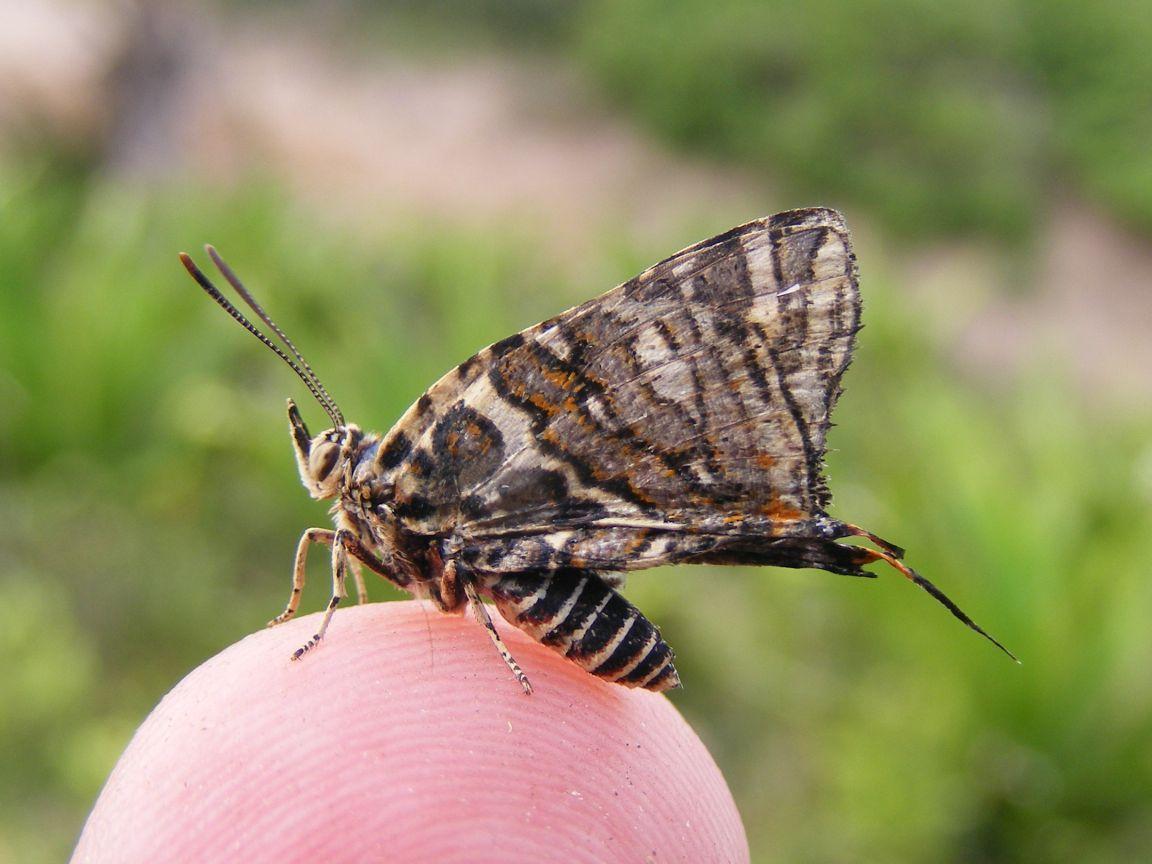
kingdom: Animalia
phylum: Arthropoda
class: Insecta
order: Lepidoptera
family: Lycaenidae
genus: Spindasis
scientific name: Spindasis ella
